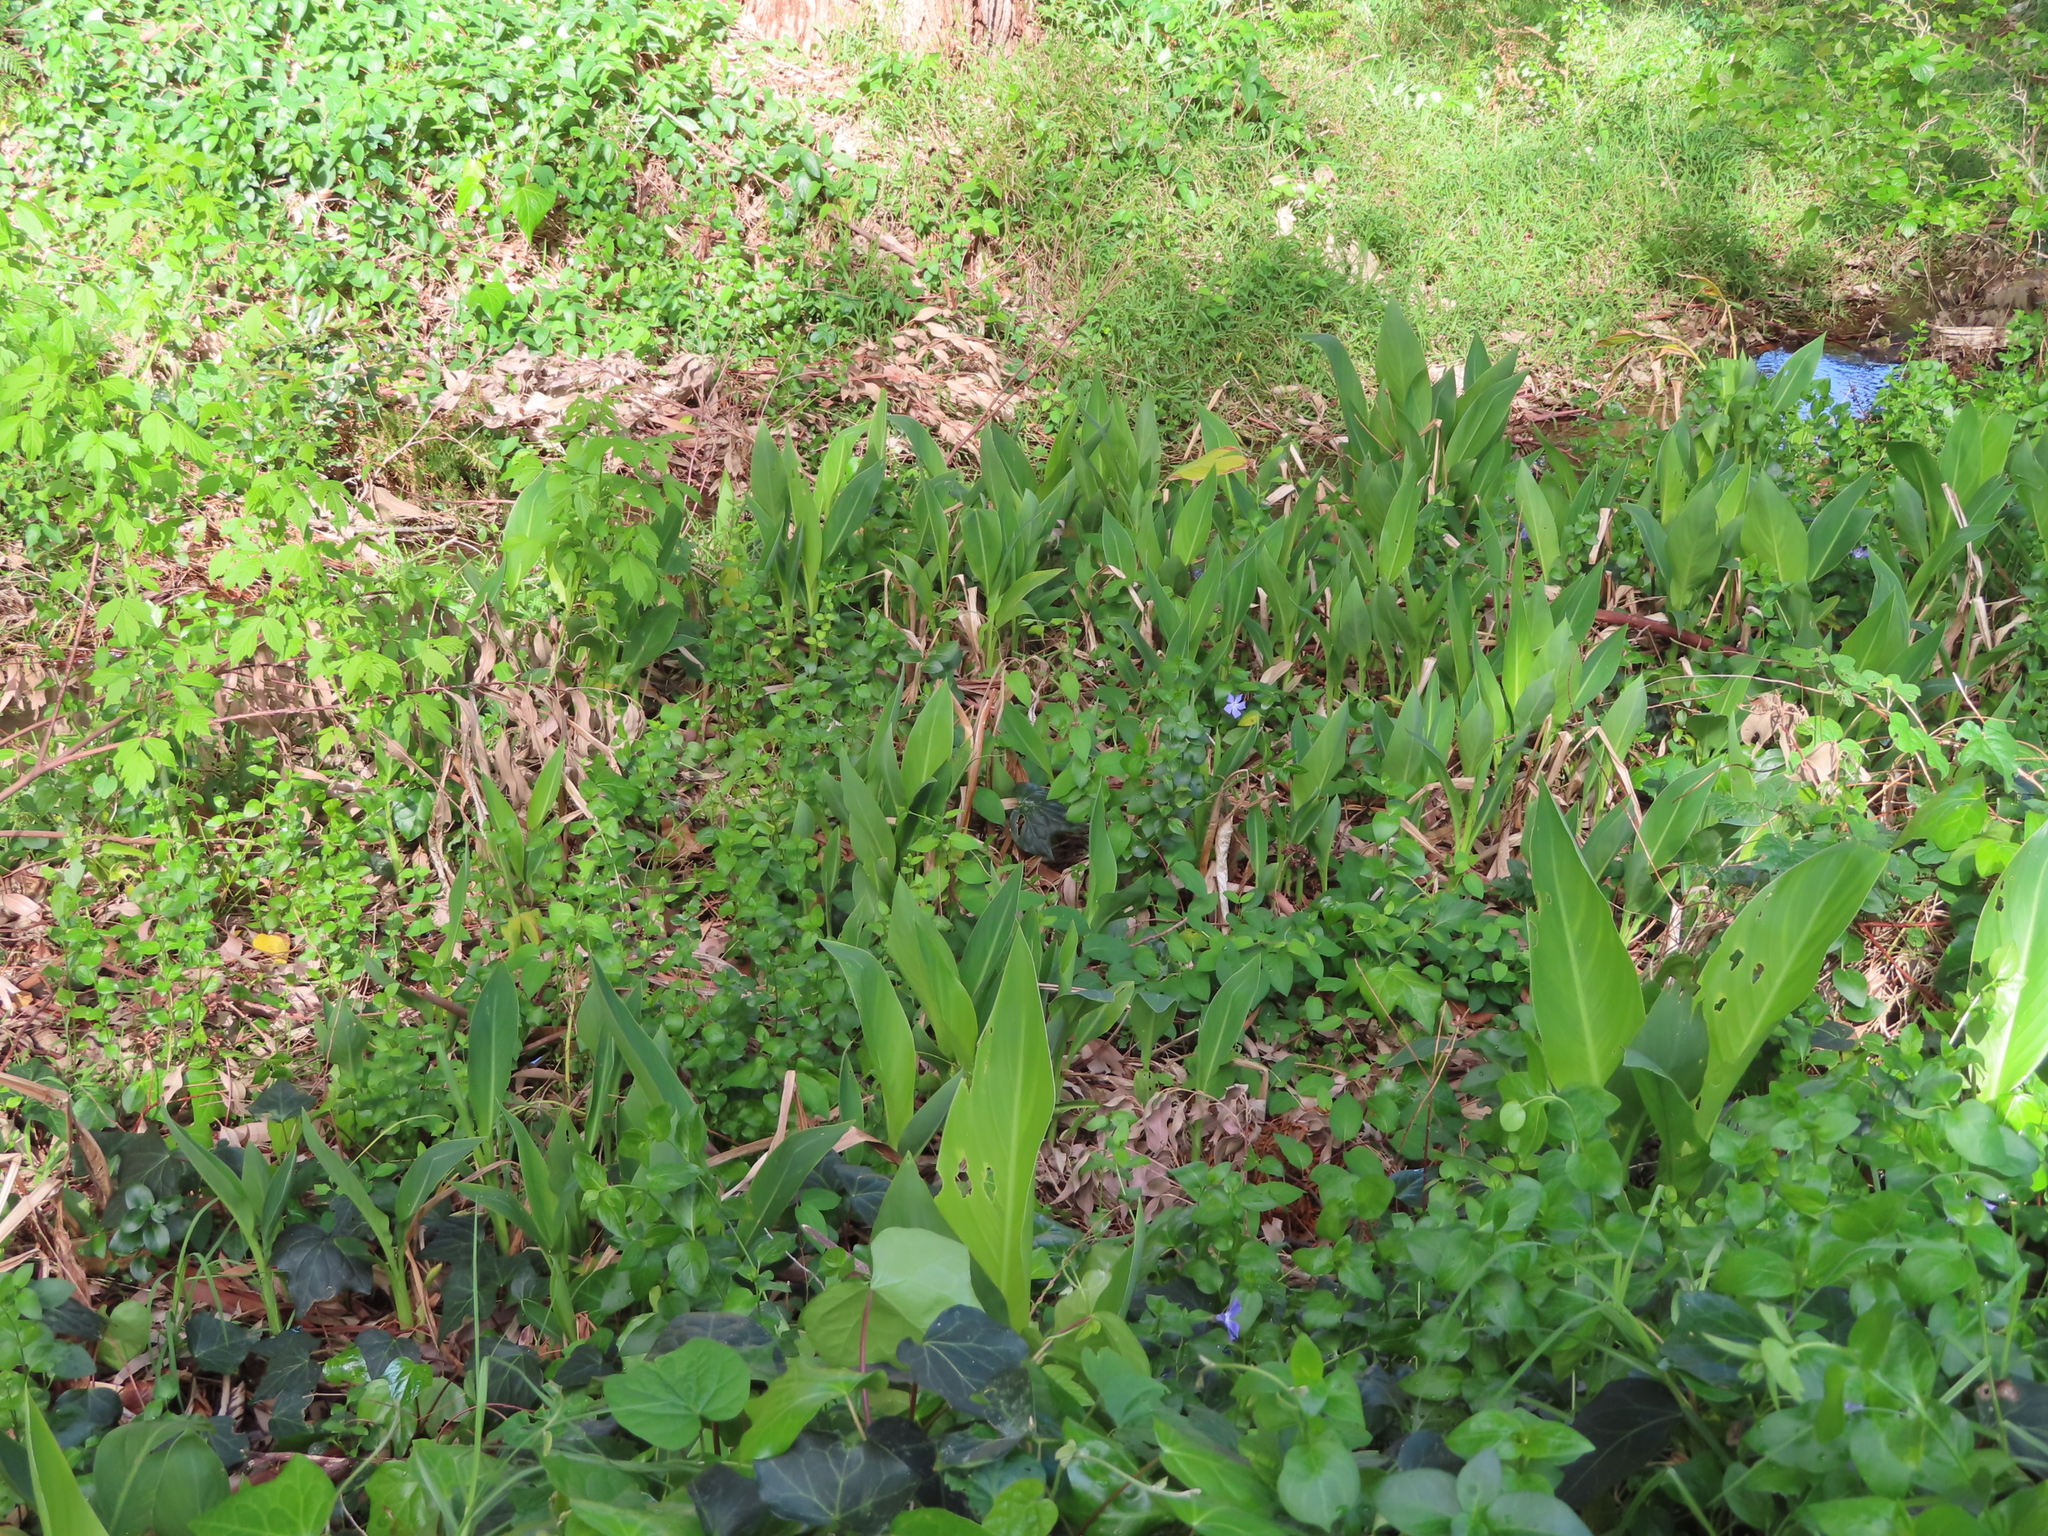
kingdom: Plantae
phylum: Tracheophyta
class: Liliopsida
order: Zingiberales
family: Cannaceae
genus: Canna
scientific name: Canna indica
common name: Indian shot
